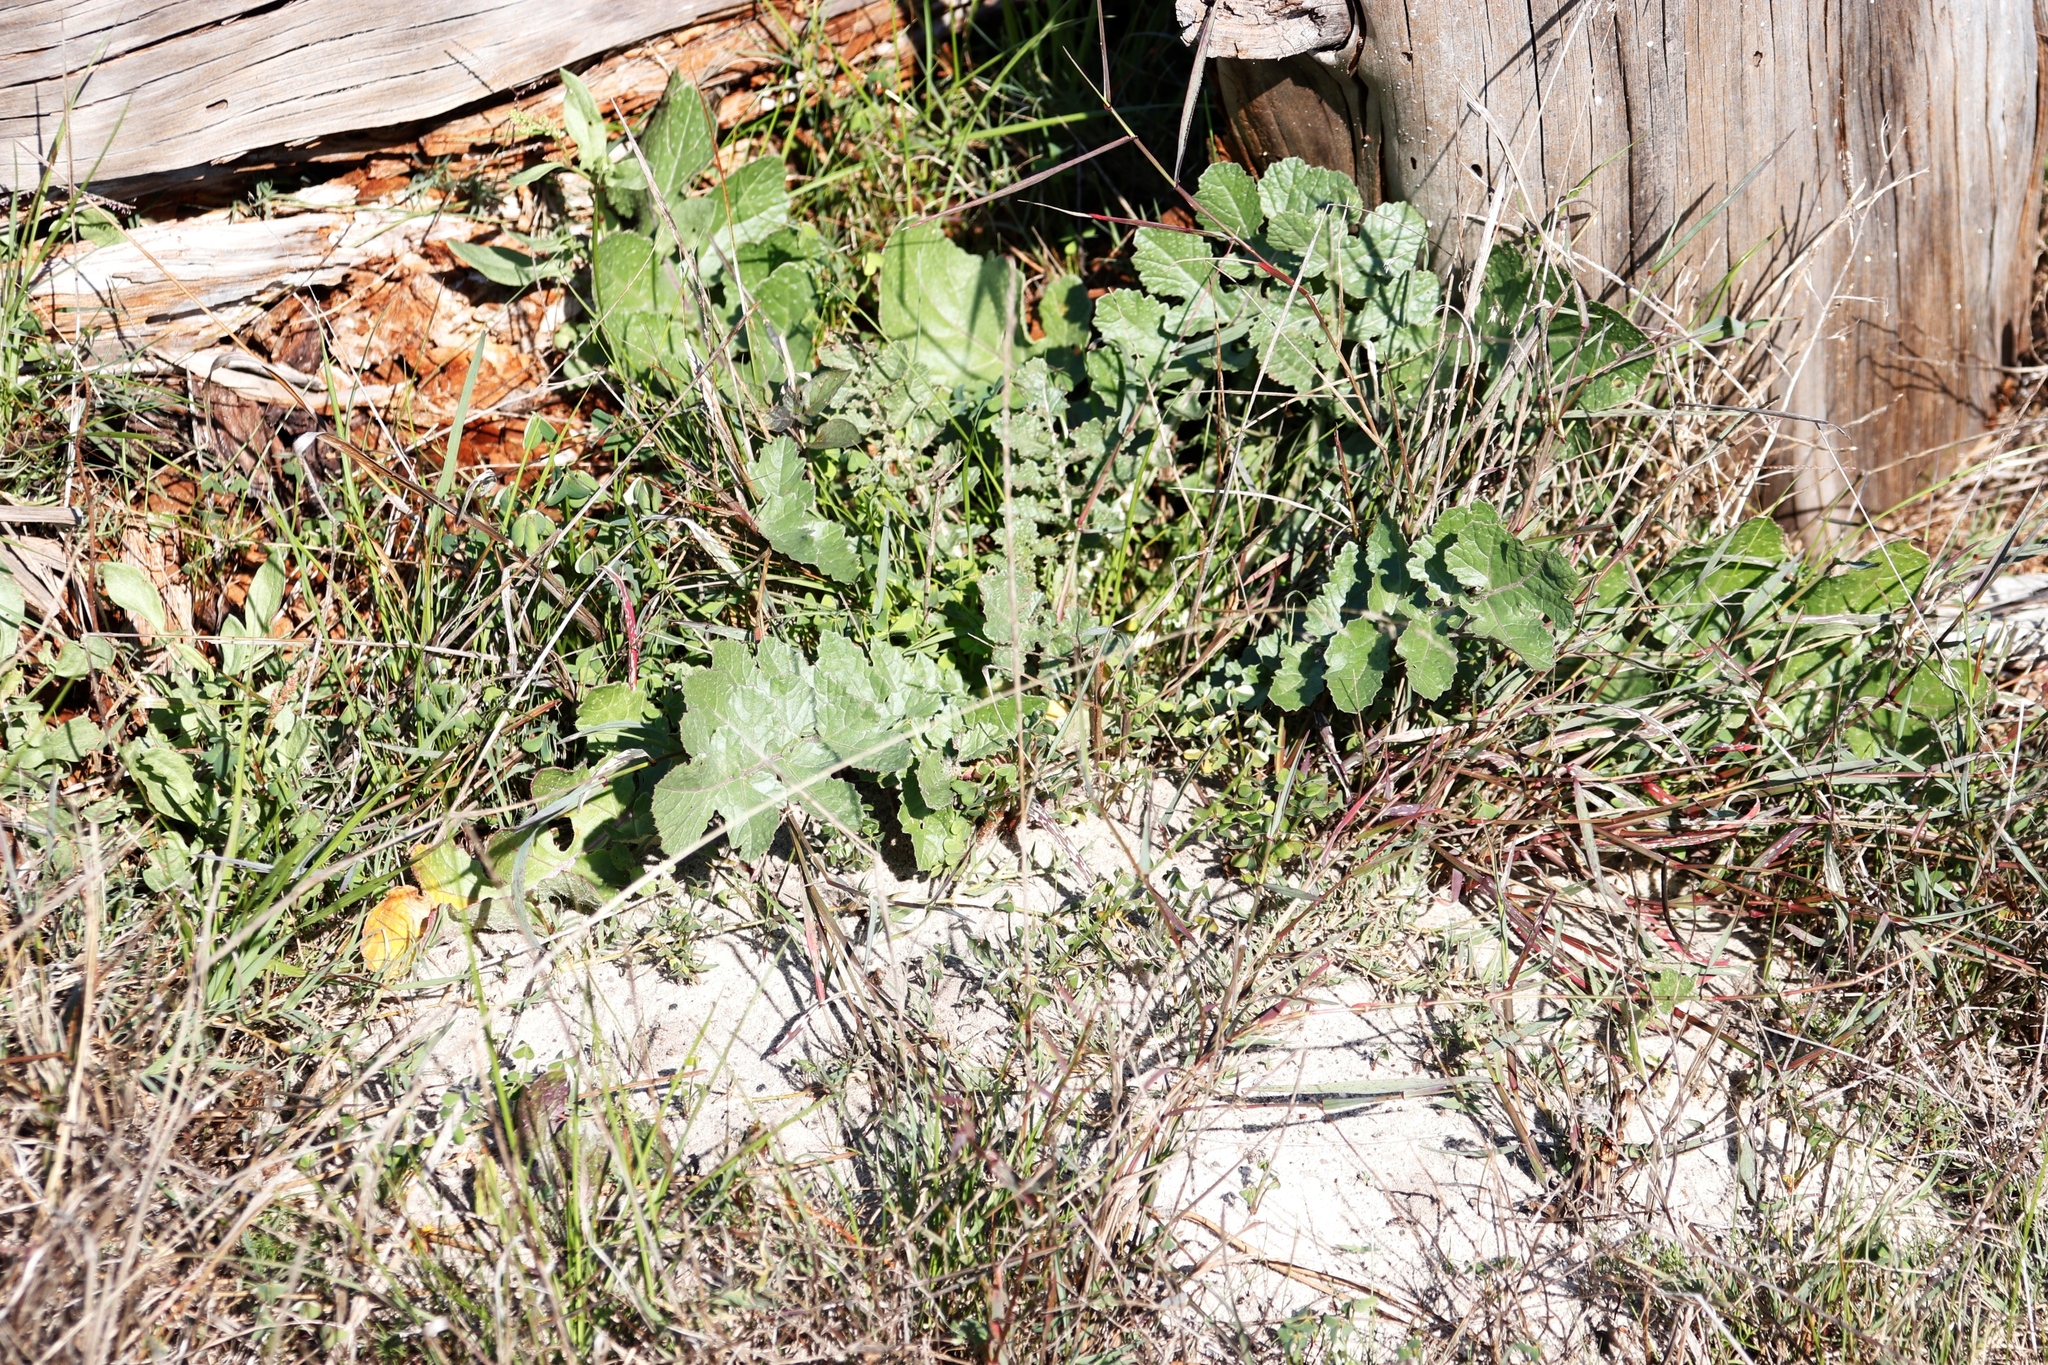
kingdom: Plantae
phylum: Tracheophyta
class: Magnoliopsida
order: Brassicales
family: Brassicaceae
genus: Raphanus
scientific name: Raphanus raphanistrum
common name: Wild radish
